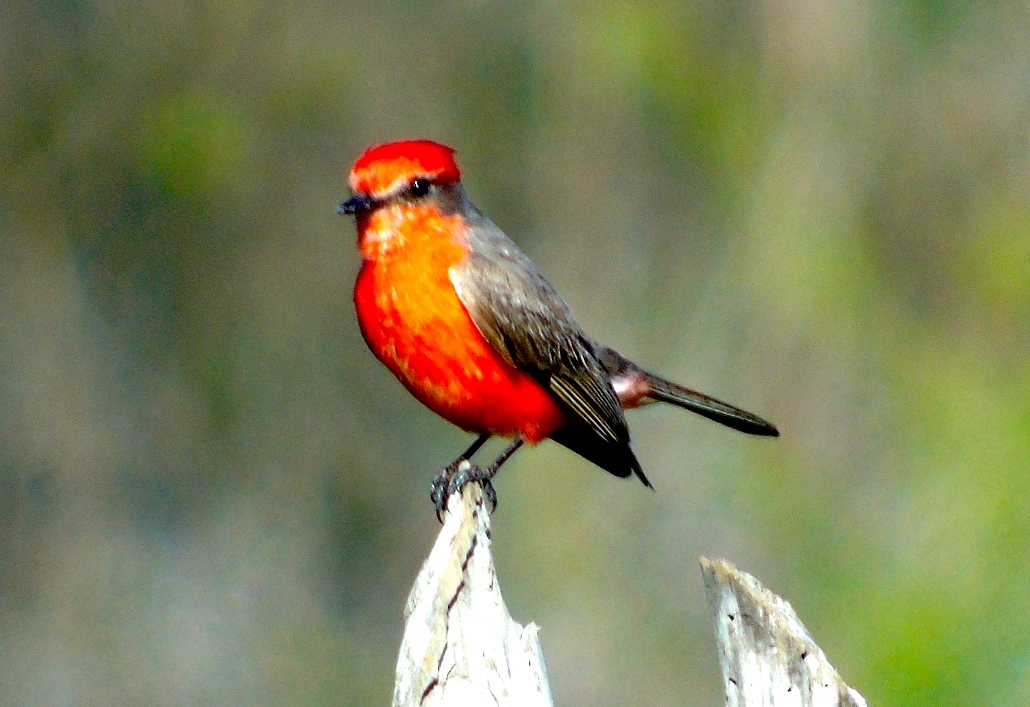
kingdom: Animalia
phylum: Chordata
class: Aves
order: Passeriformes
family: Tyrannidae
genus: Pyrocephalus
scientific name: Pyrocephalus rubinus
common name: Vermilion flycatcher
